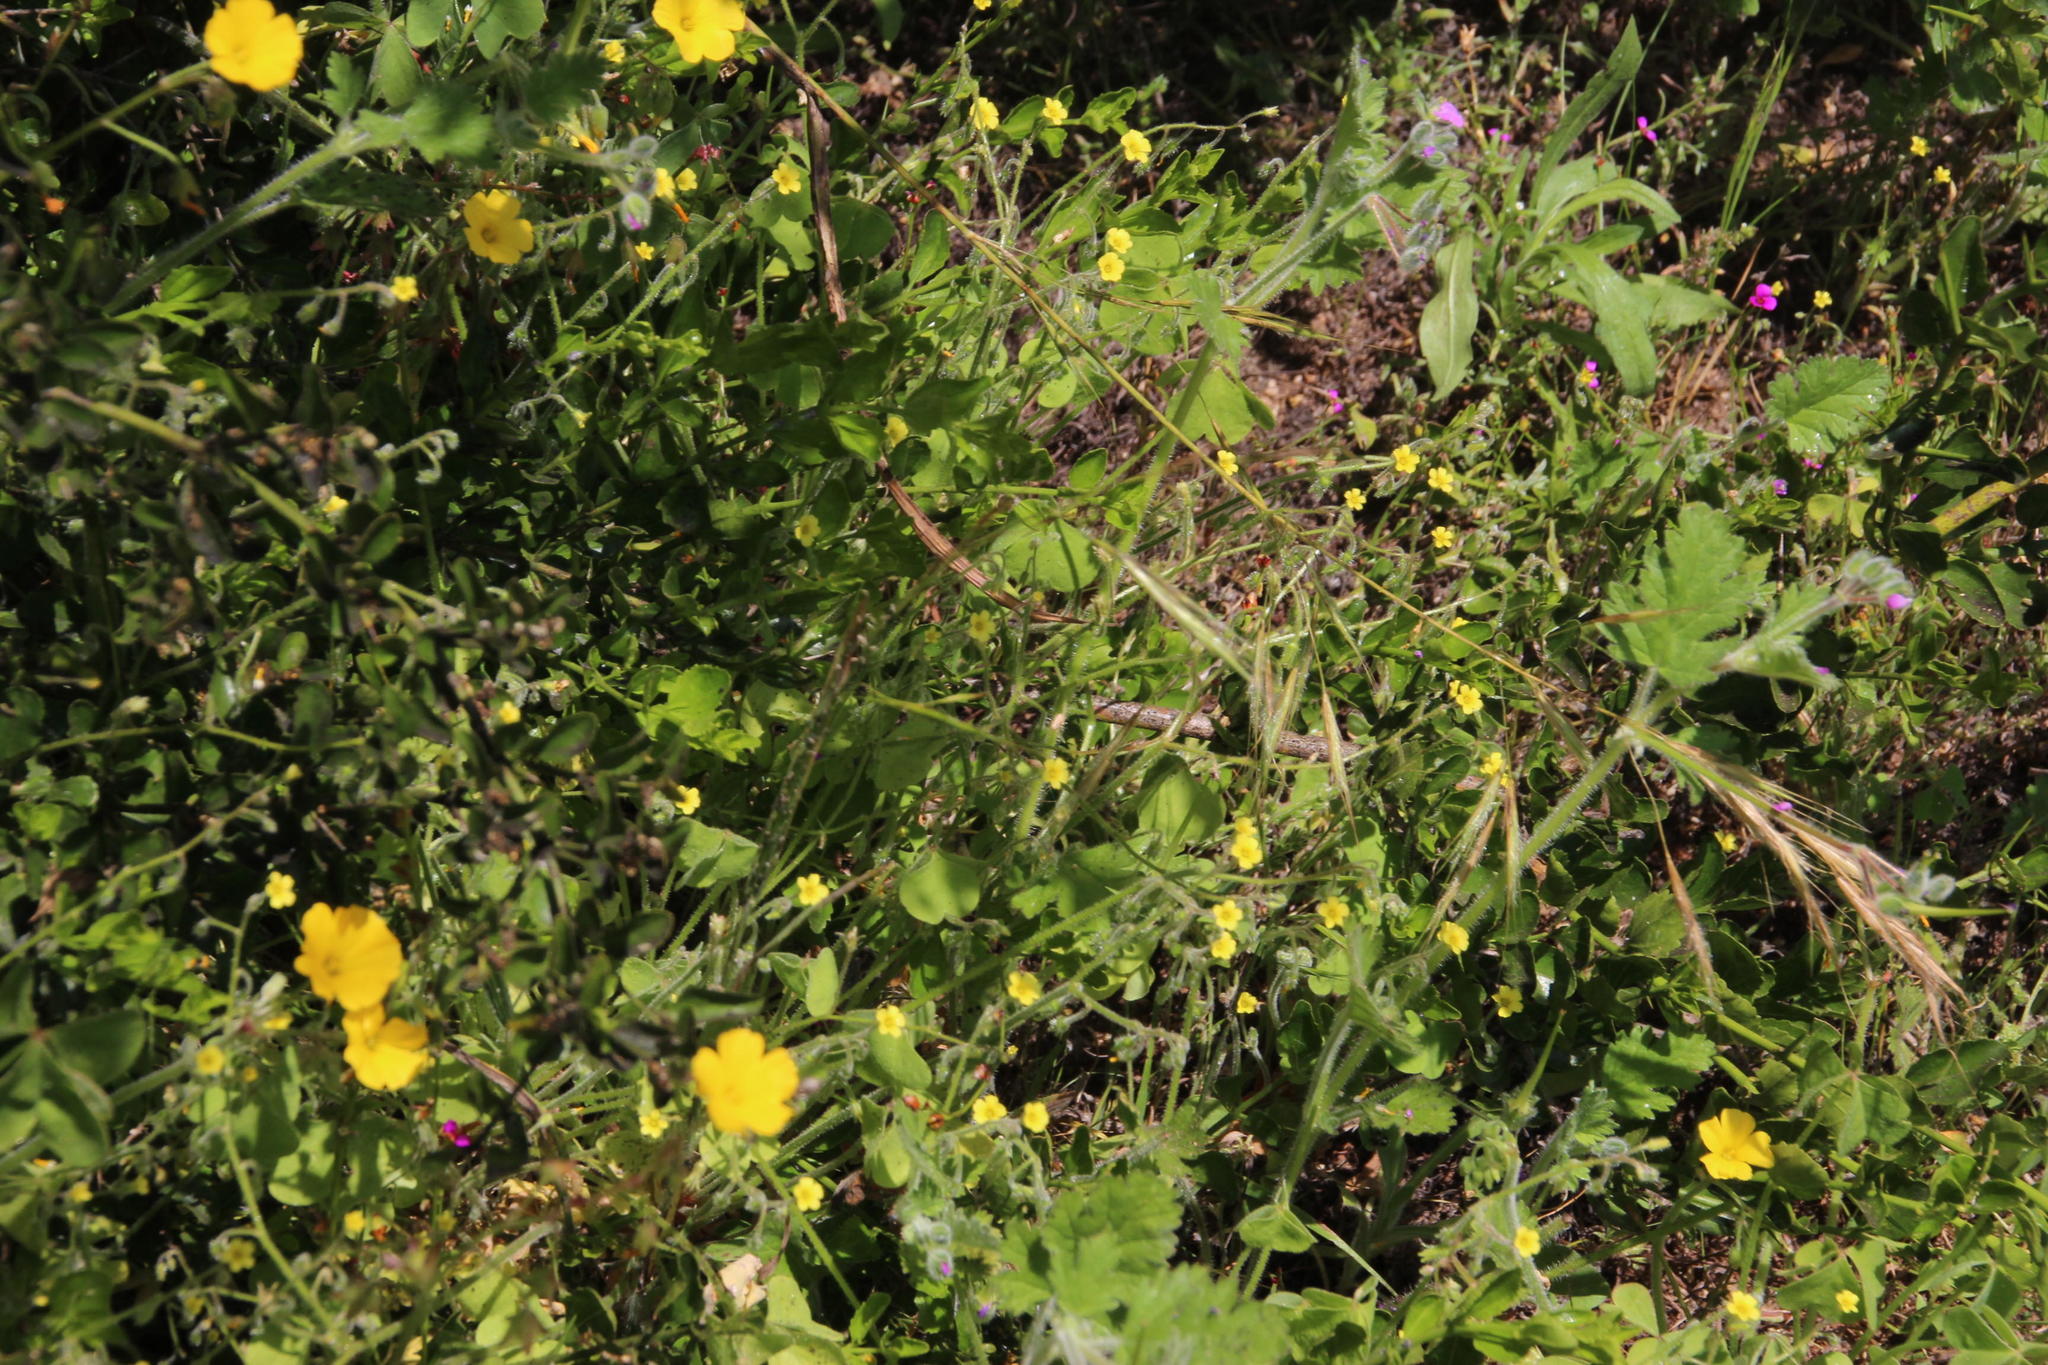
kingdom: Plantae
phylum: Tracheophyta
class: Magnoliopsida
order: Oxalidales
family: Oxalidaceae
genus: Oxalis
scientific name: Oxalis laxa
